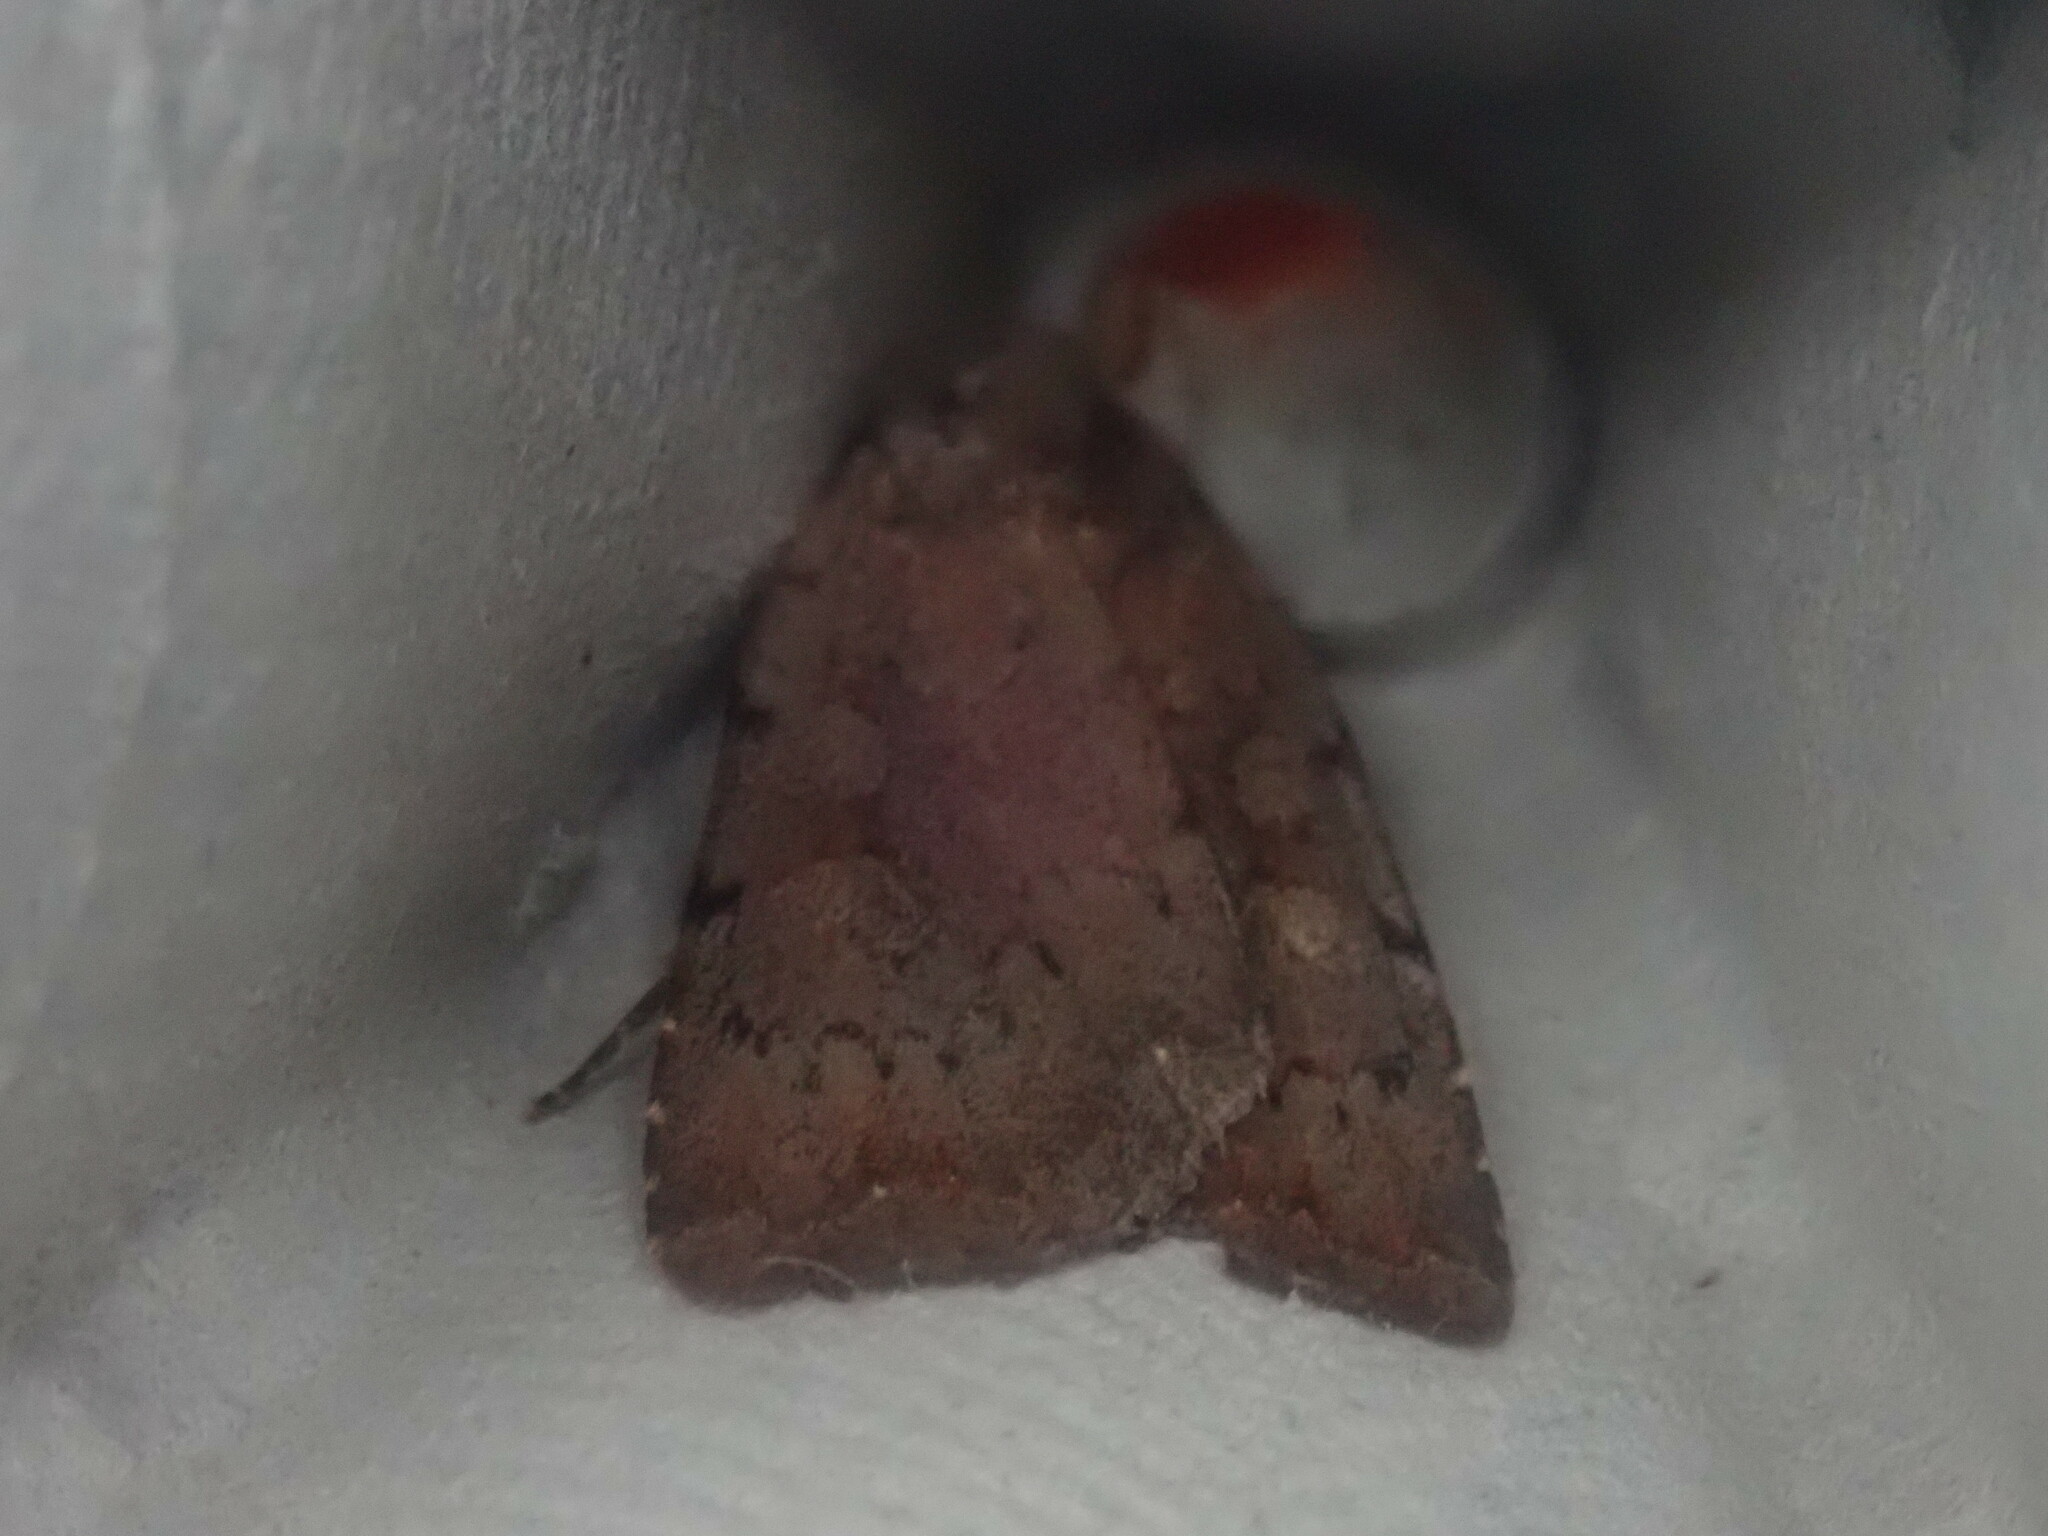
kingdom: Animalia
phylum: Arthropoda
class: Insecta
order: Lepidoptera
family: Noctuidae
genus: Xestia
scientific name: Xestia dilucida
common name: Dull reddish dart
